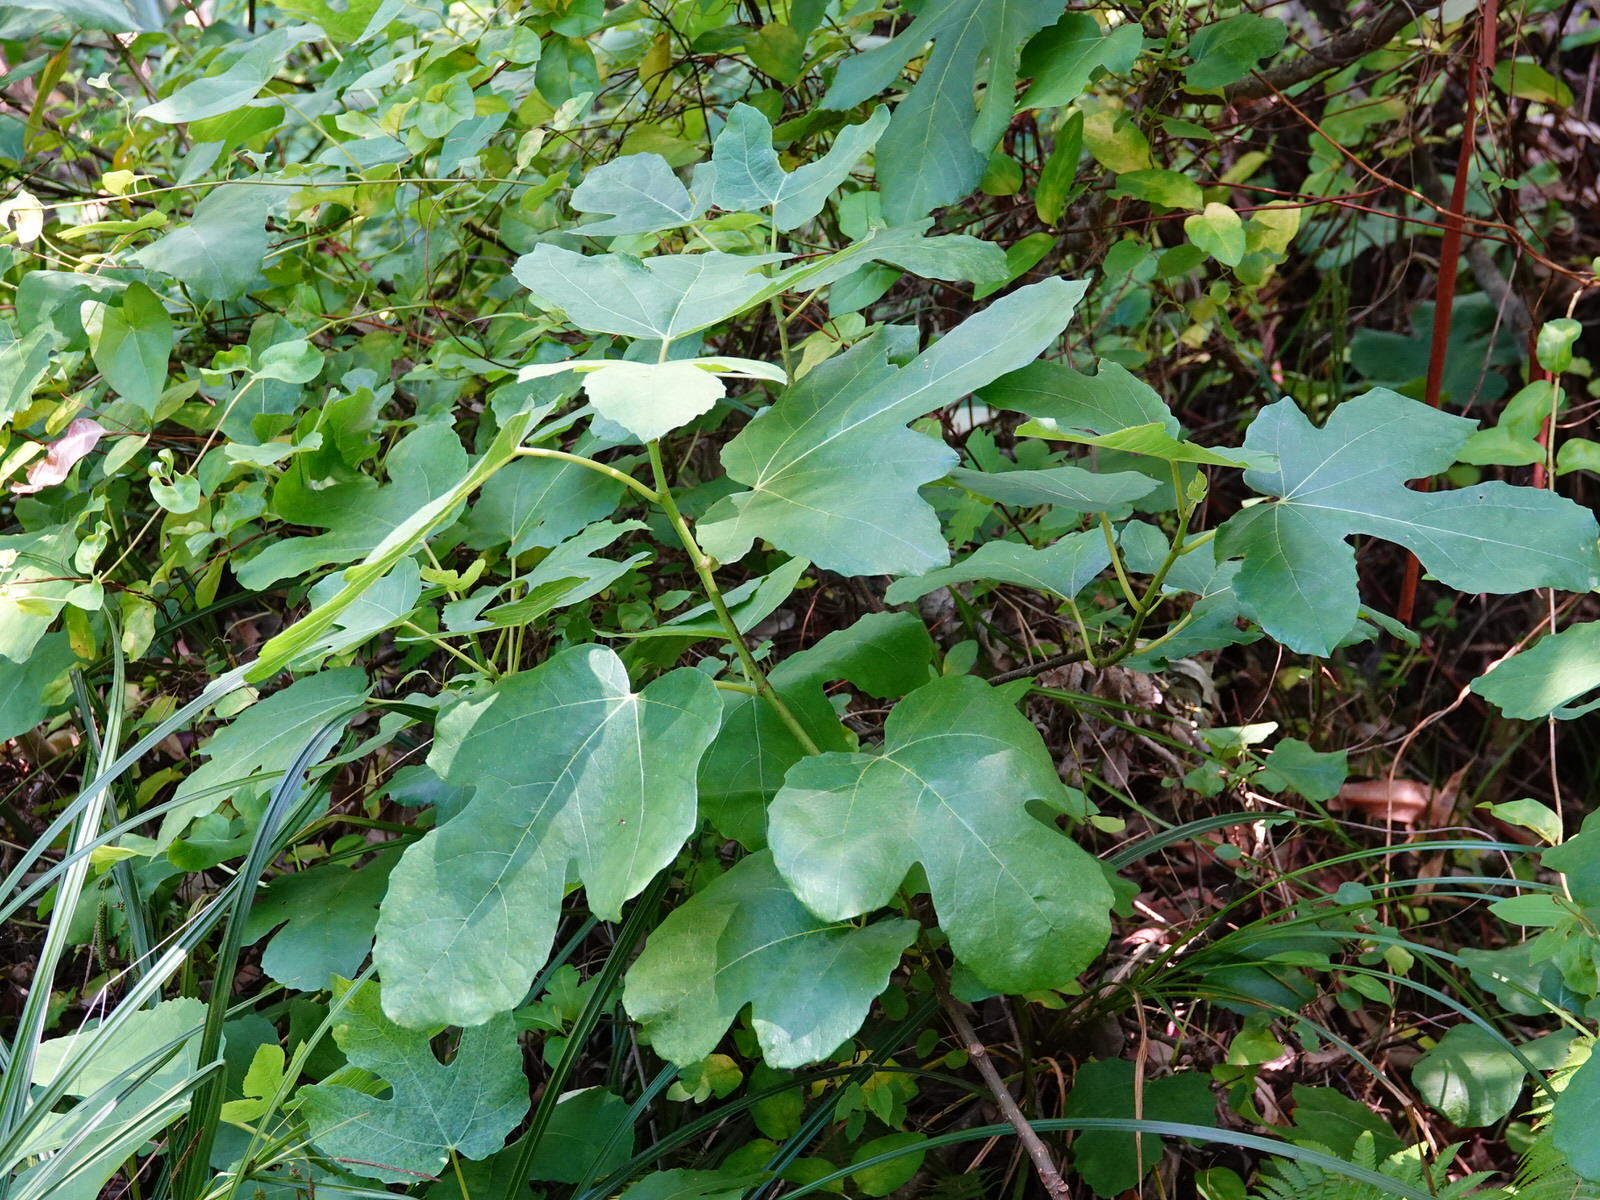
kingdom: Plantae
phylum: Tracheophyta
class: Magnoliopsida
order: Rosales
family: Moraceae
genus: Ficus
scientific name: Ficus carica
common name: Fig
